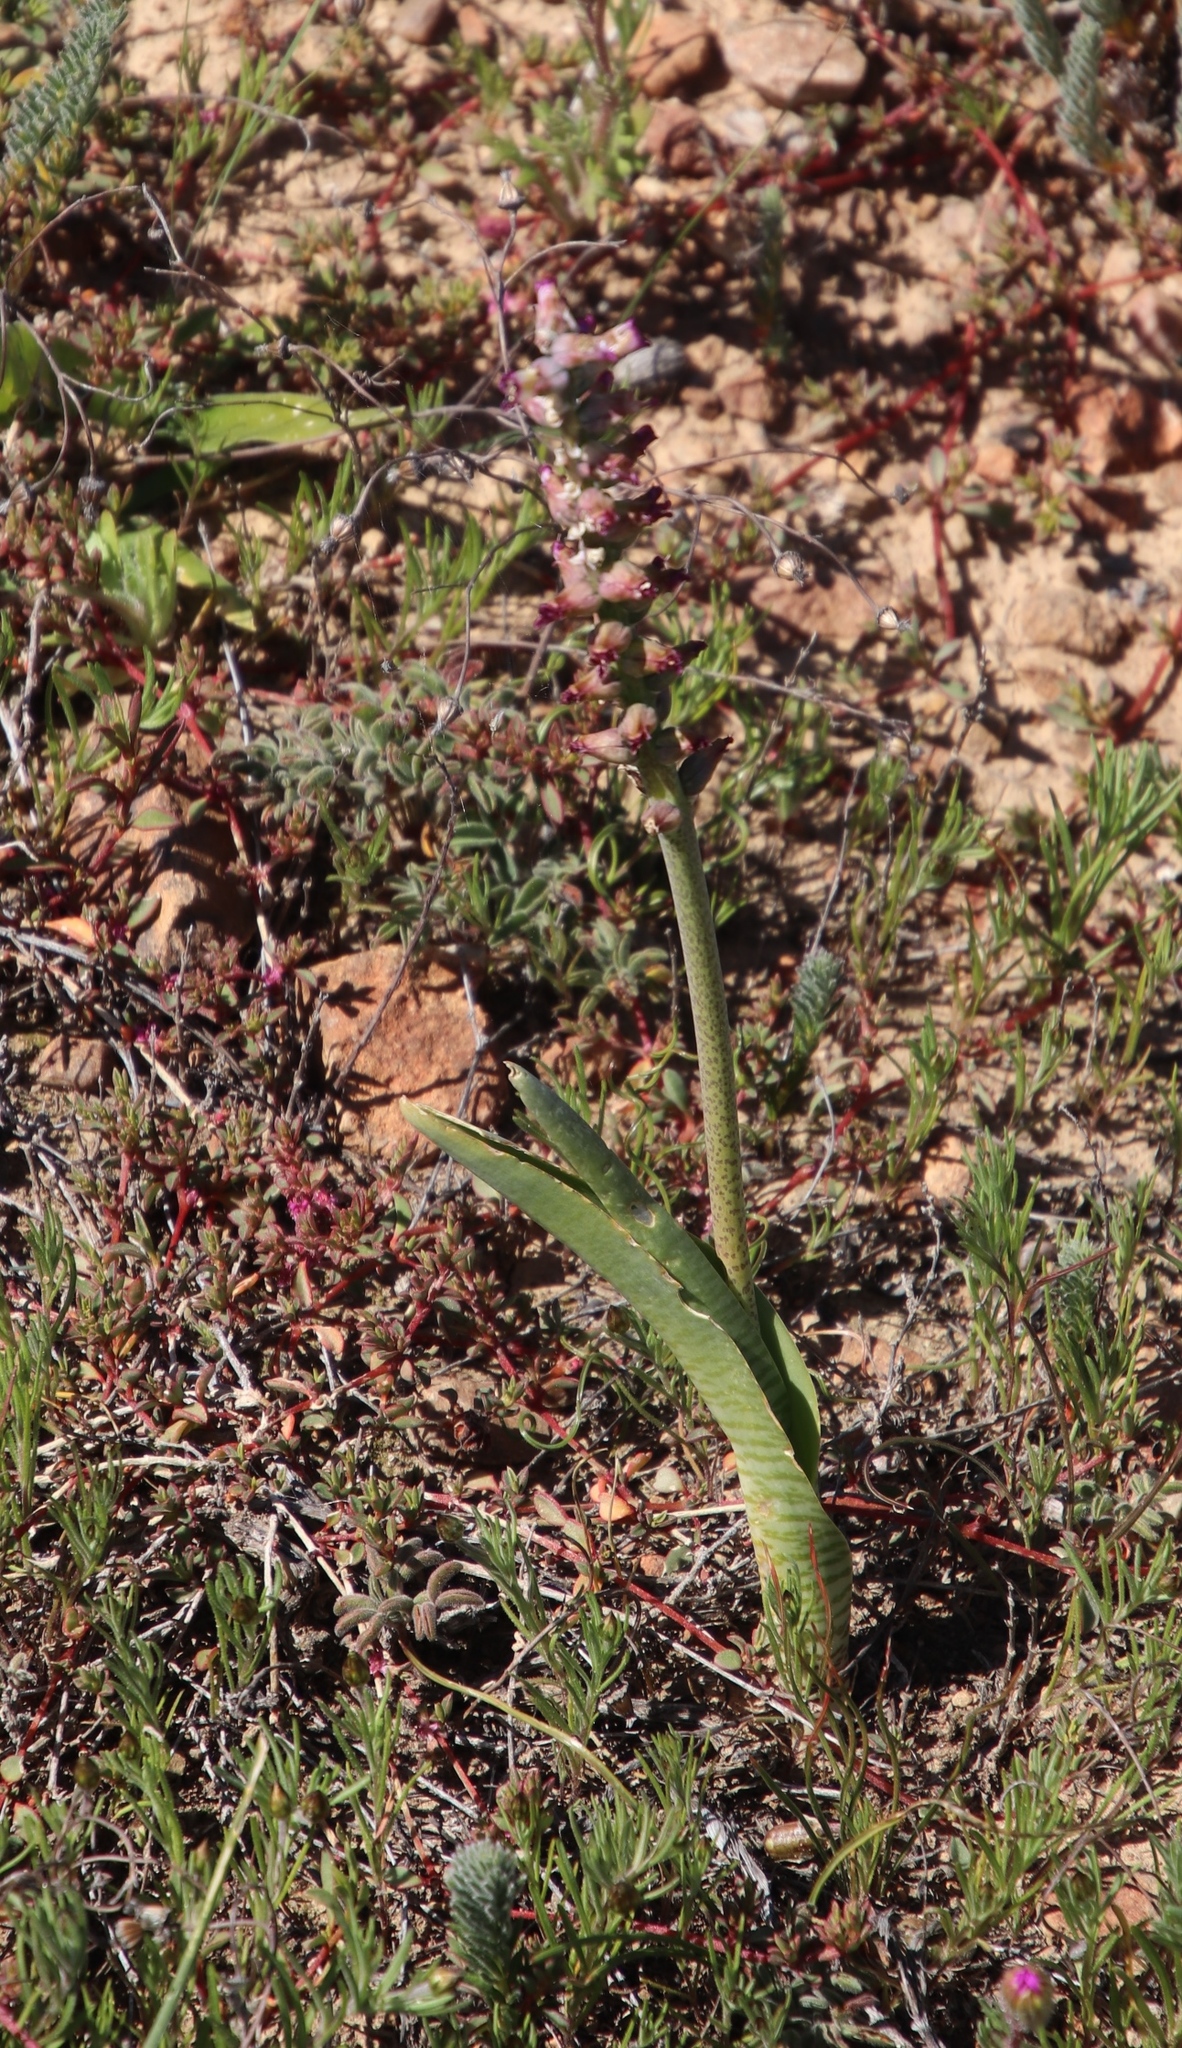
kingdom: Plantae
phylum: Tracheophyta
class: Liliopsida
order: Asparagales
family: Asparagaceae
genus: Lachenalia
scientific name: Lachenalia obscura
